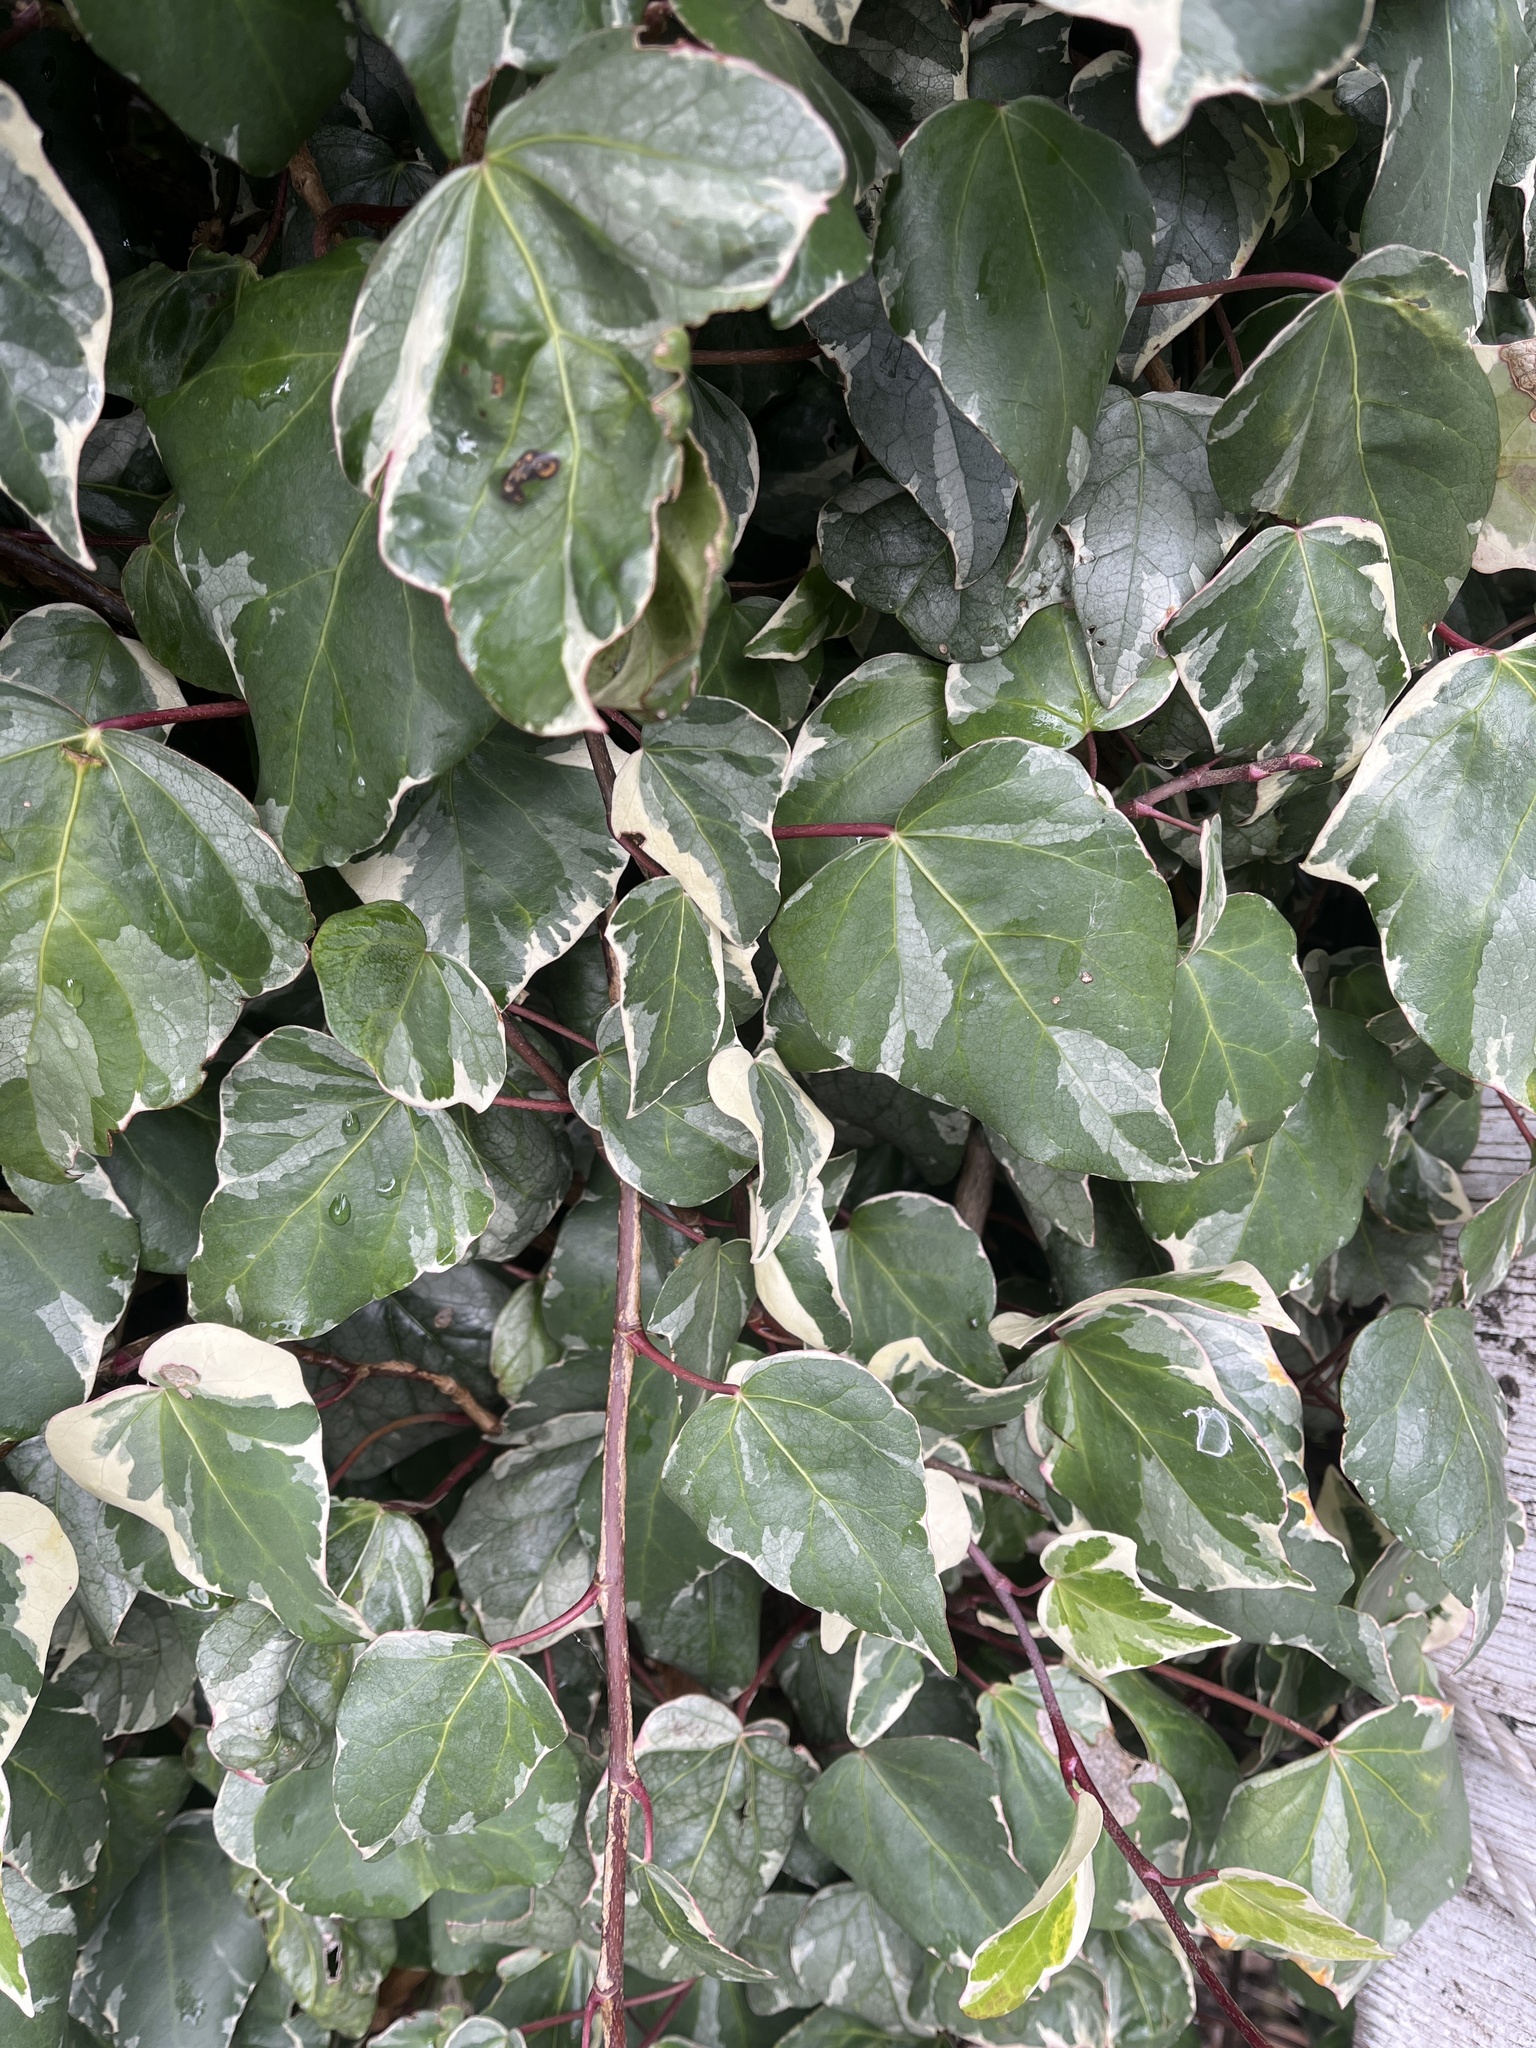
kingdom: Plantae
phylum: Tracheophyta
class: Magnoliopsida
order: Apiales
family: Araliaceae
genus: Hedera
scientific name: Hedera algeriensis
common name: Algerian ivy
